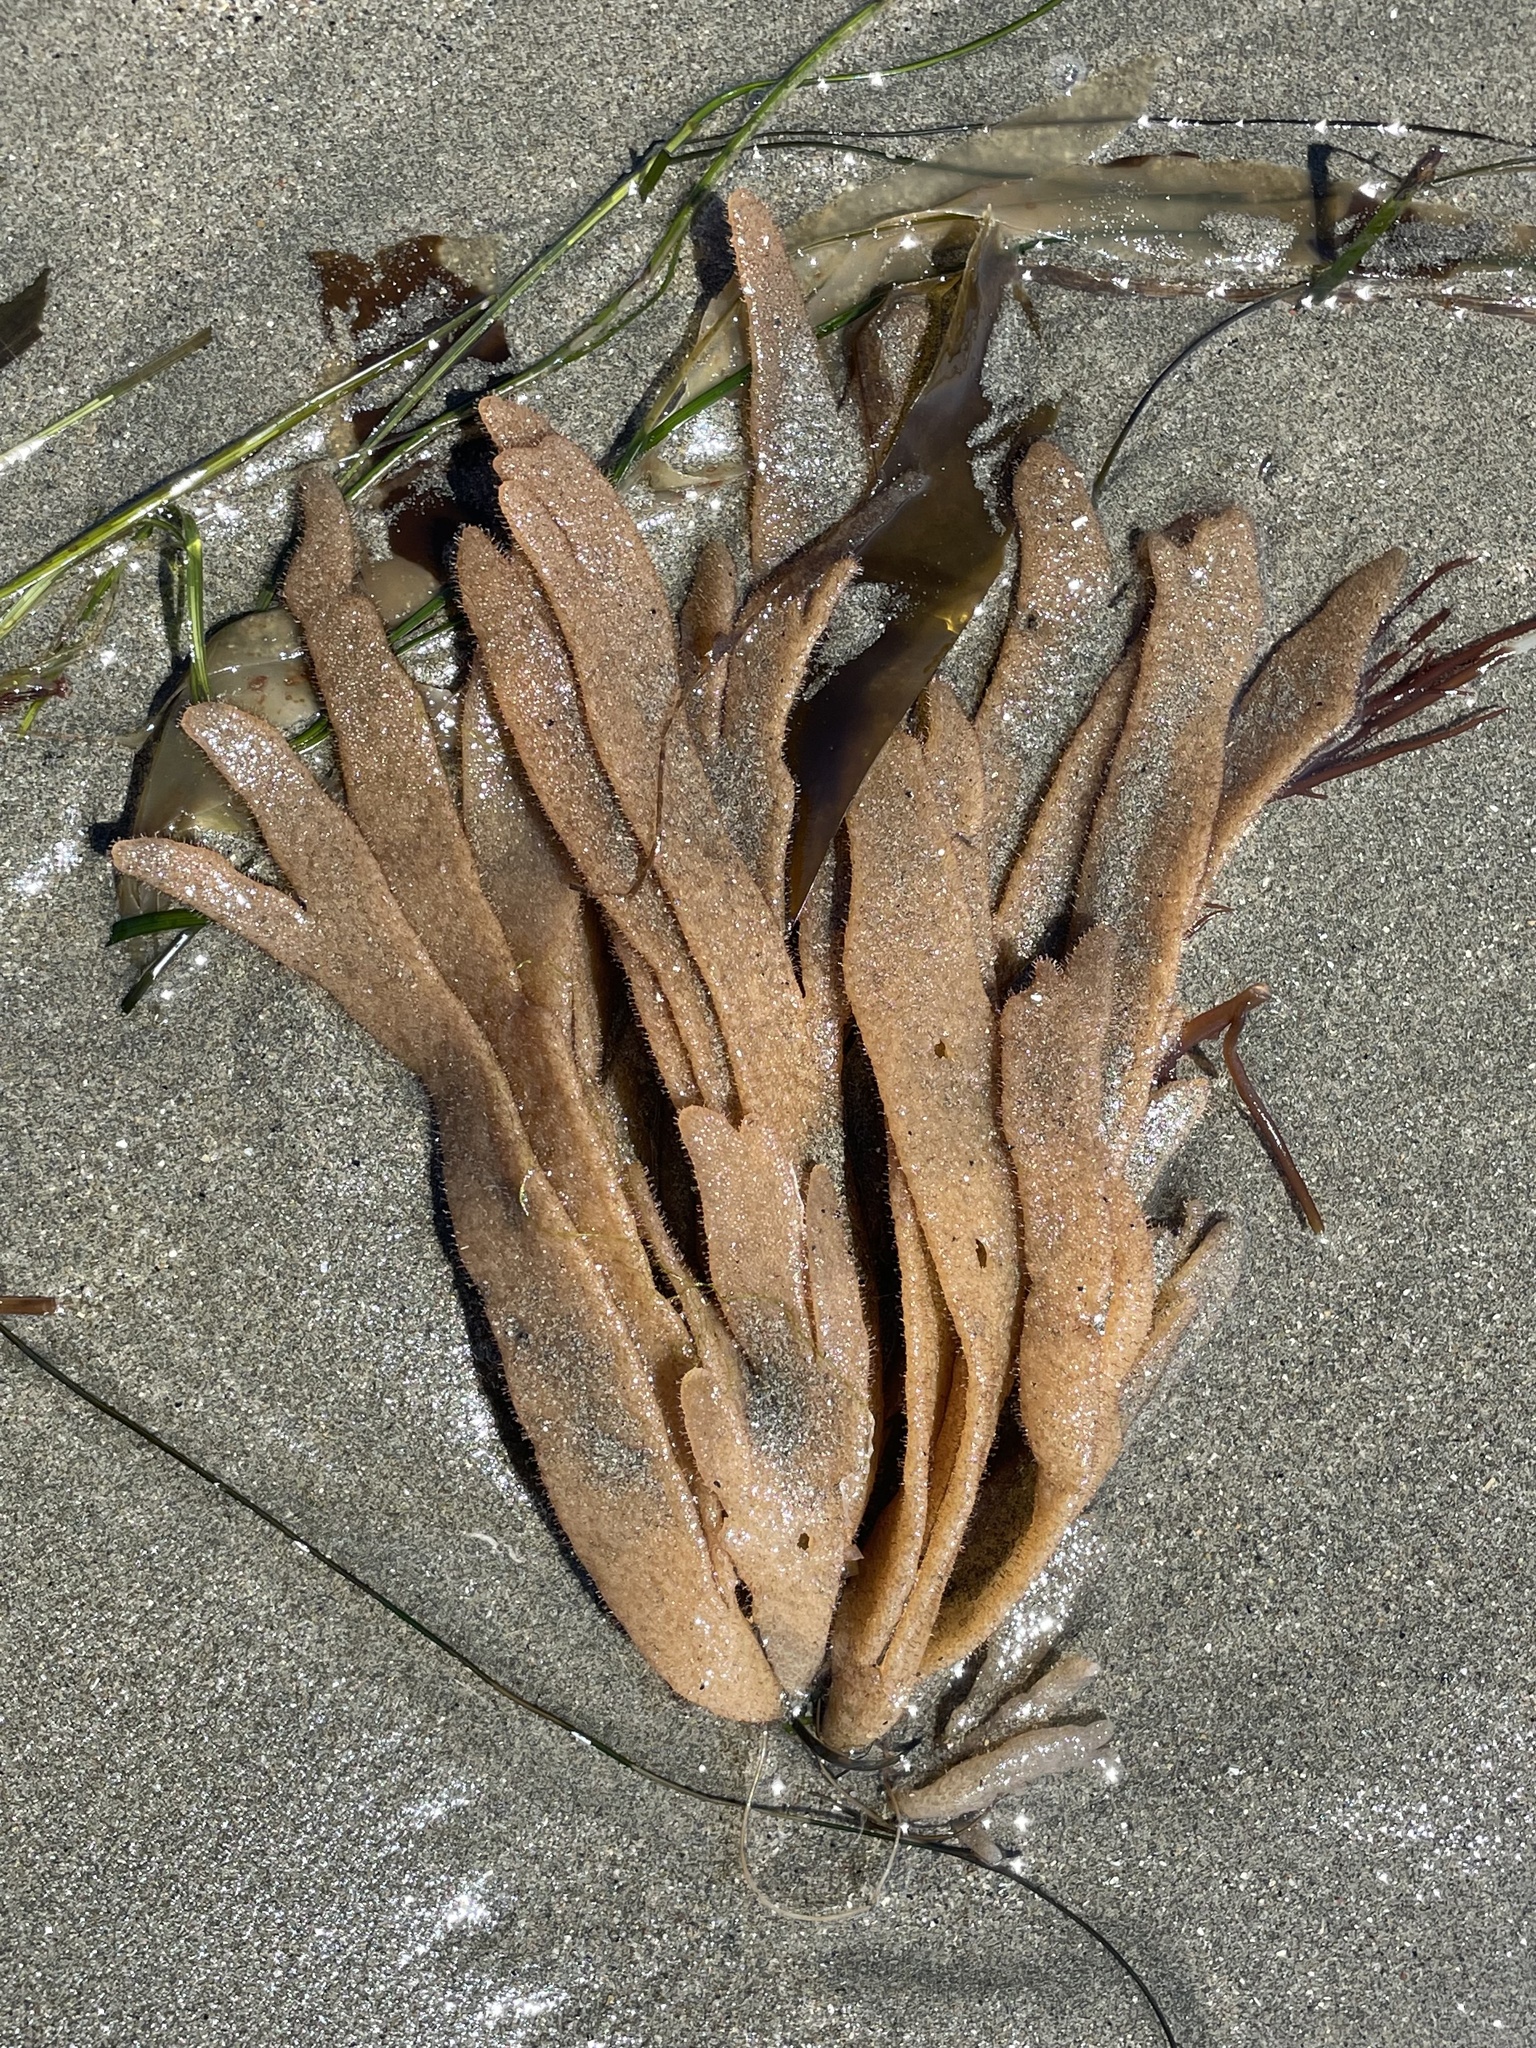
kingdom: Animalia
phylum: Bryozoa
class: Gymnolaemata
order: Ctenostomatida
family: Flustrellidridae
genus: Flustrellidra
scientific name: Flustrellidra corniculata
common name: Spiny leather bryozoan
